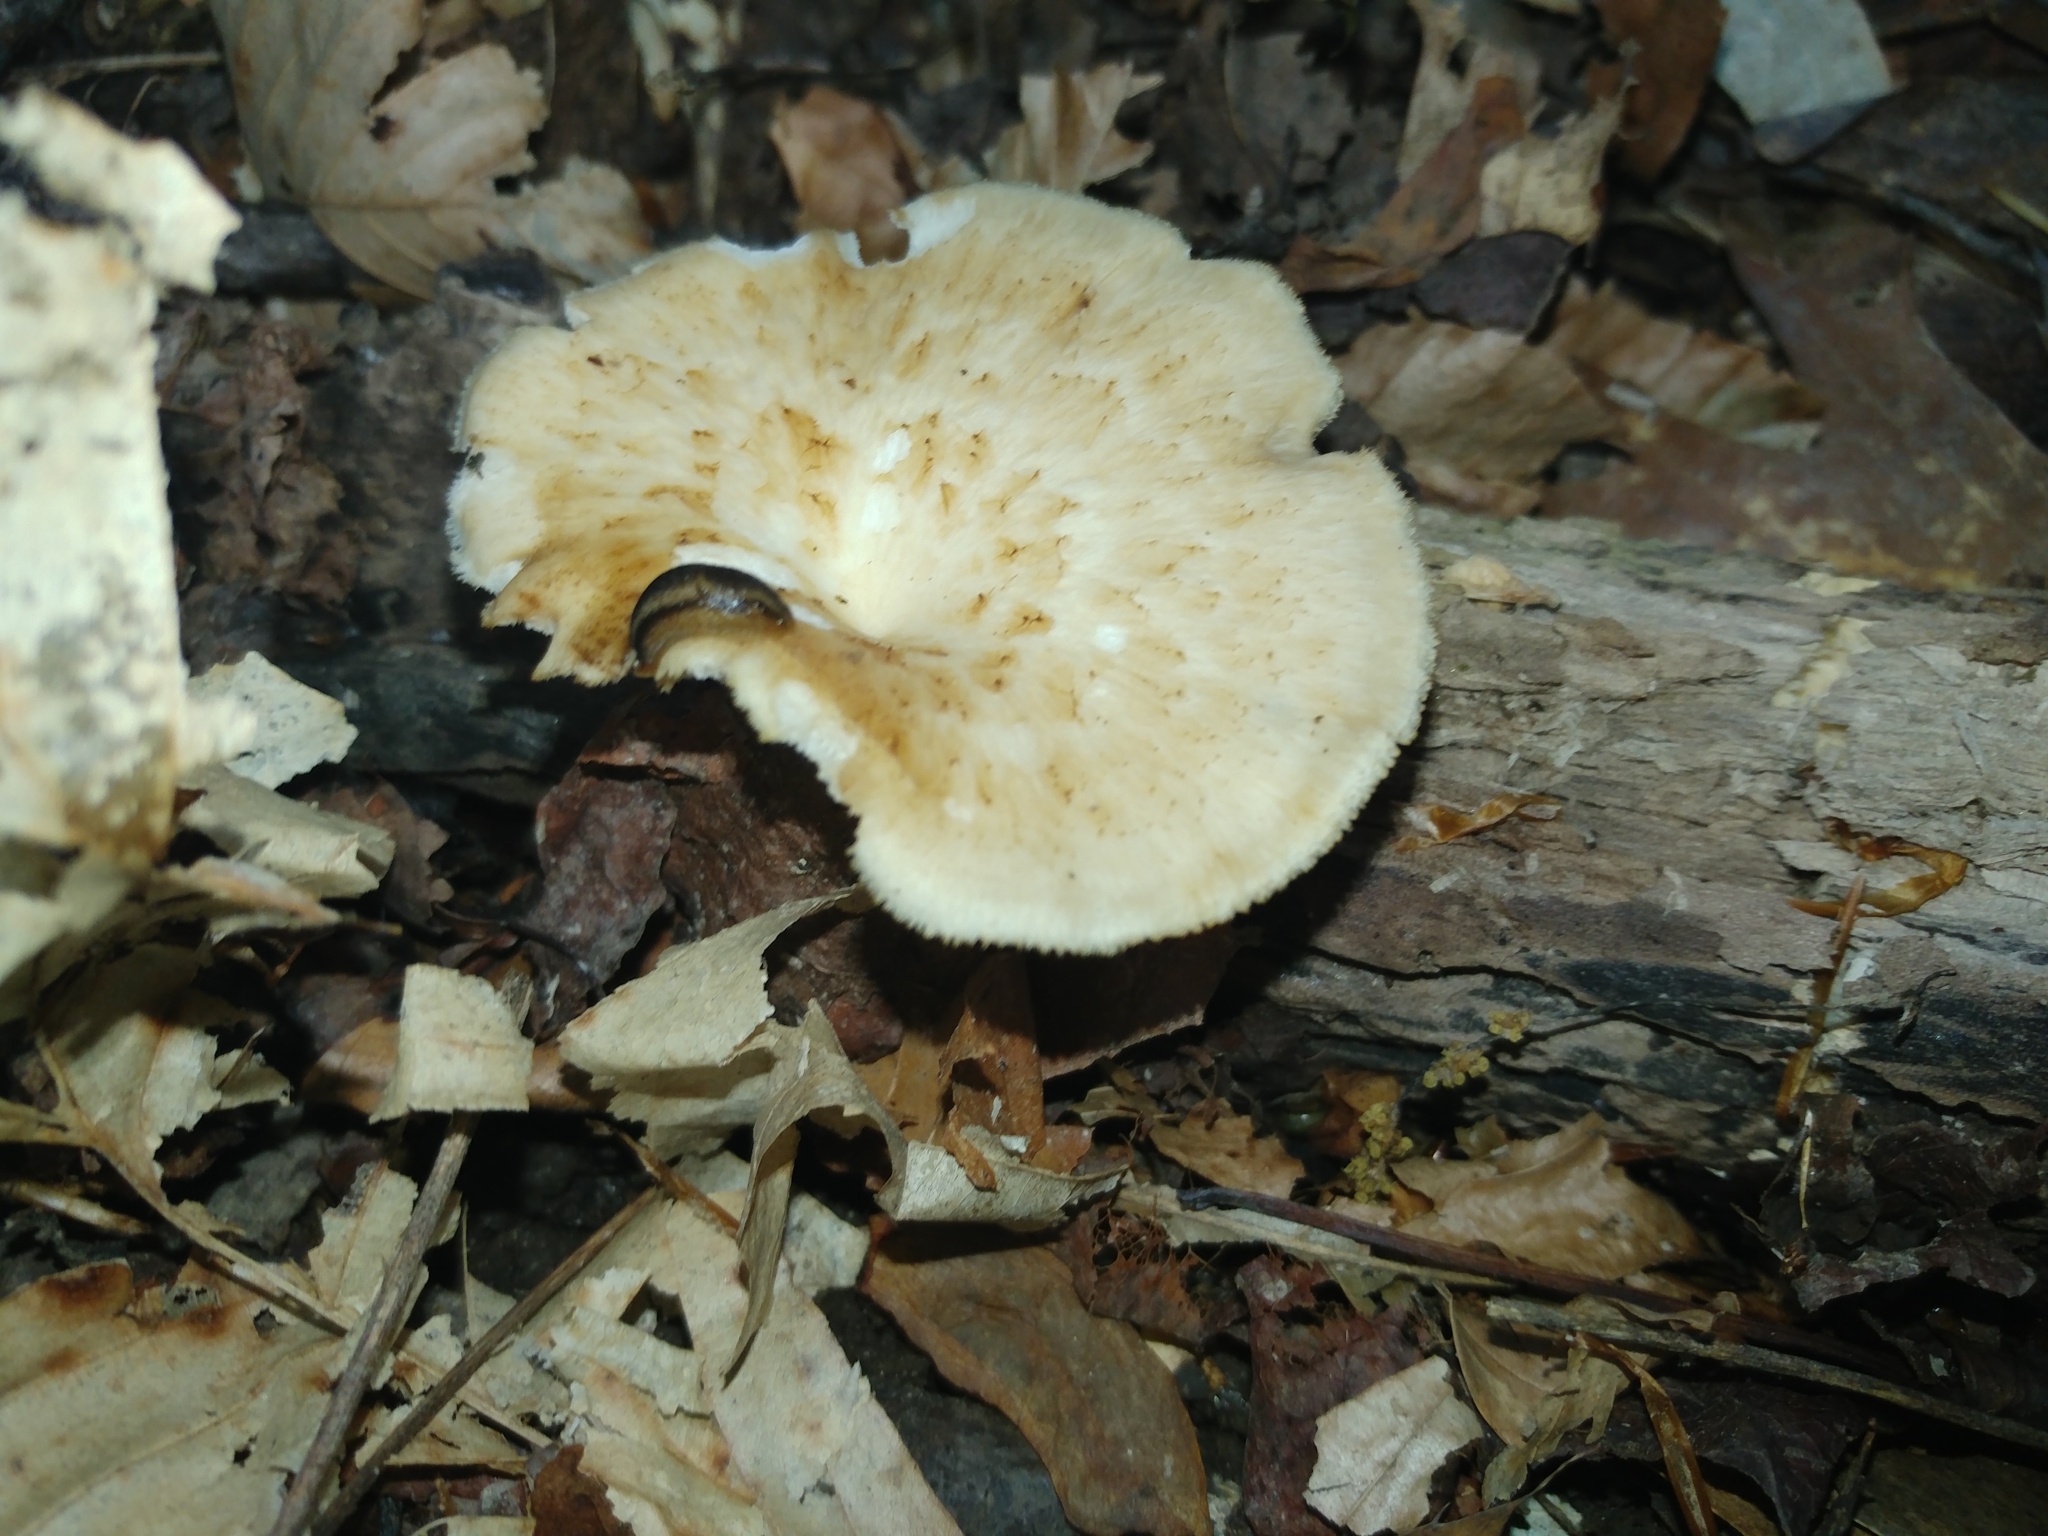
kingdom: Fungi
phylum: Basidiomycota
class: Agaricomycetes
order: Polyporales
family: Polyporaceae
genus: Cerioporus
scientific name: Cerioporus varius
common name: Elegant polypore
